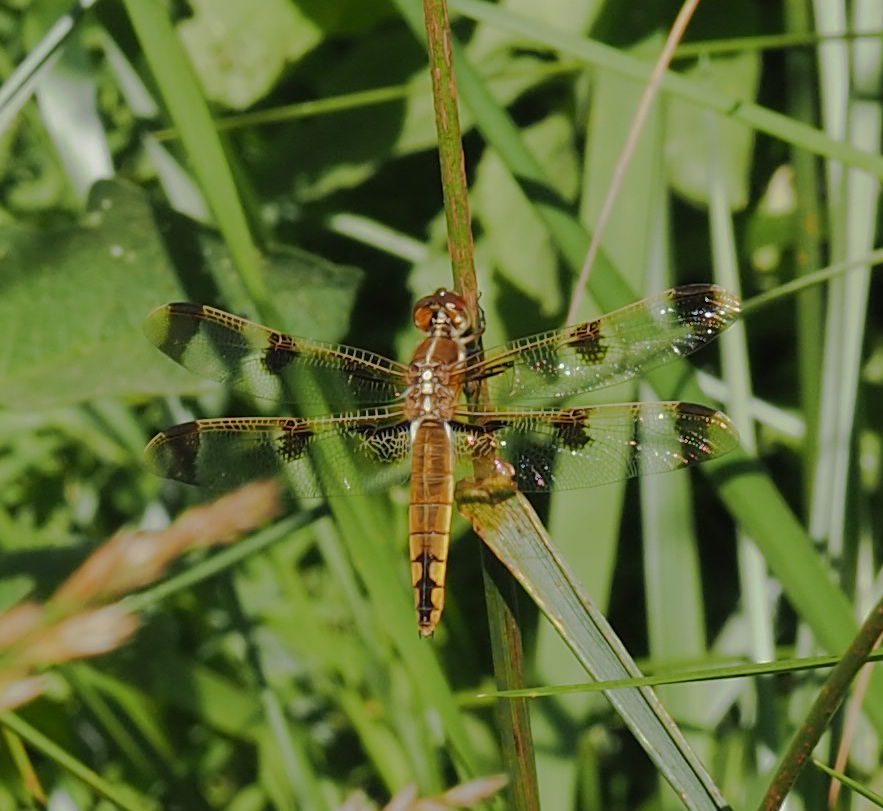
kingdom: Animalia
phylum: Arthropoda
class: Insecta
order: Odonata
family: Libellulidae
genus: Libellula
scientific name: Libellula semifasciata
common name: Painted skimmer
